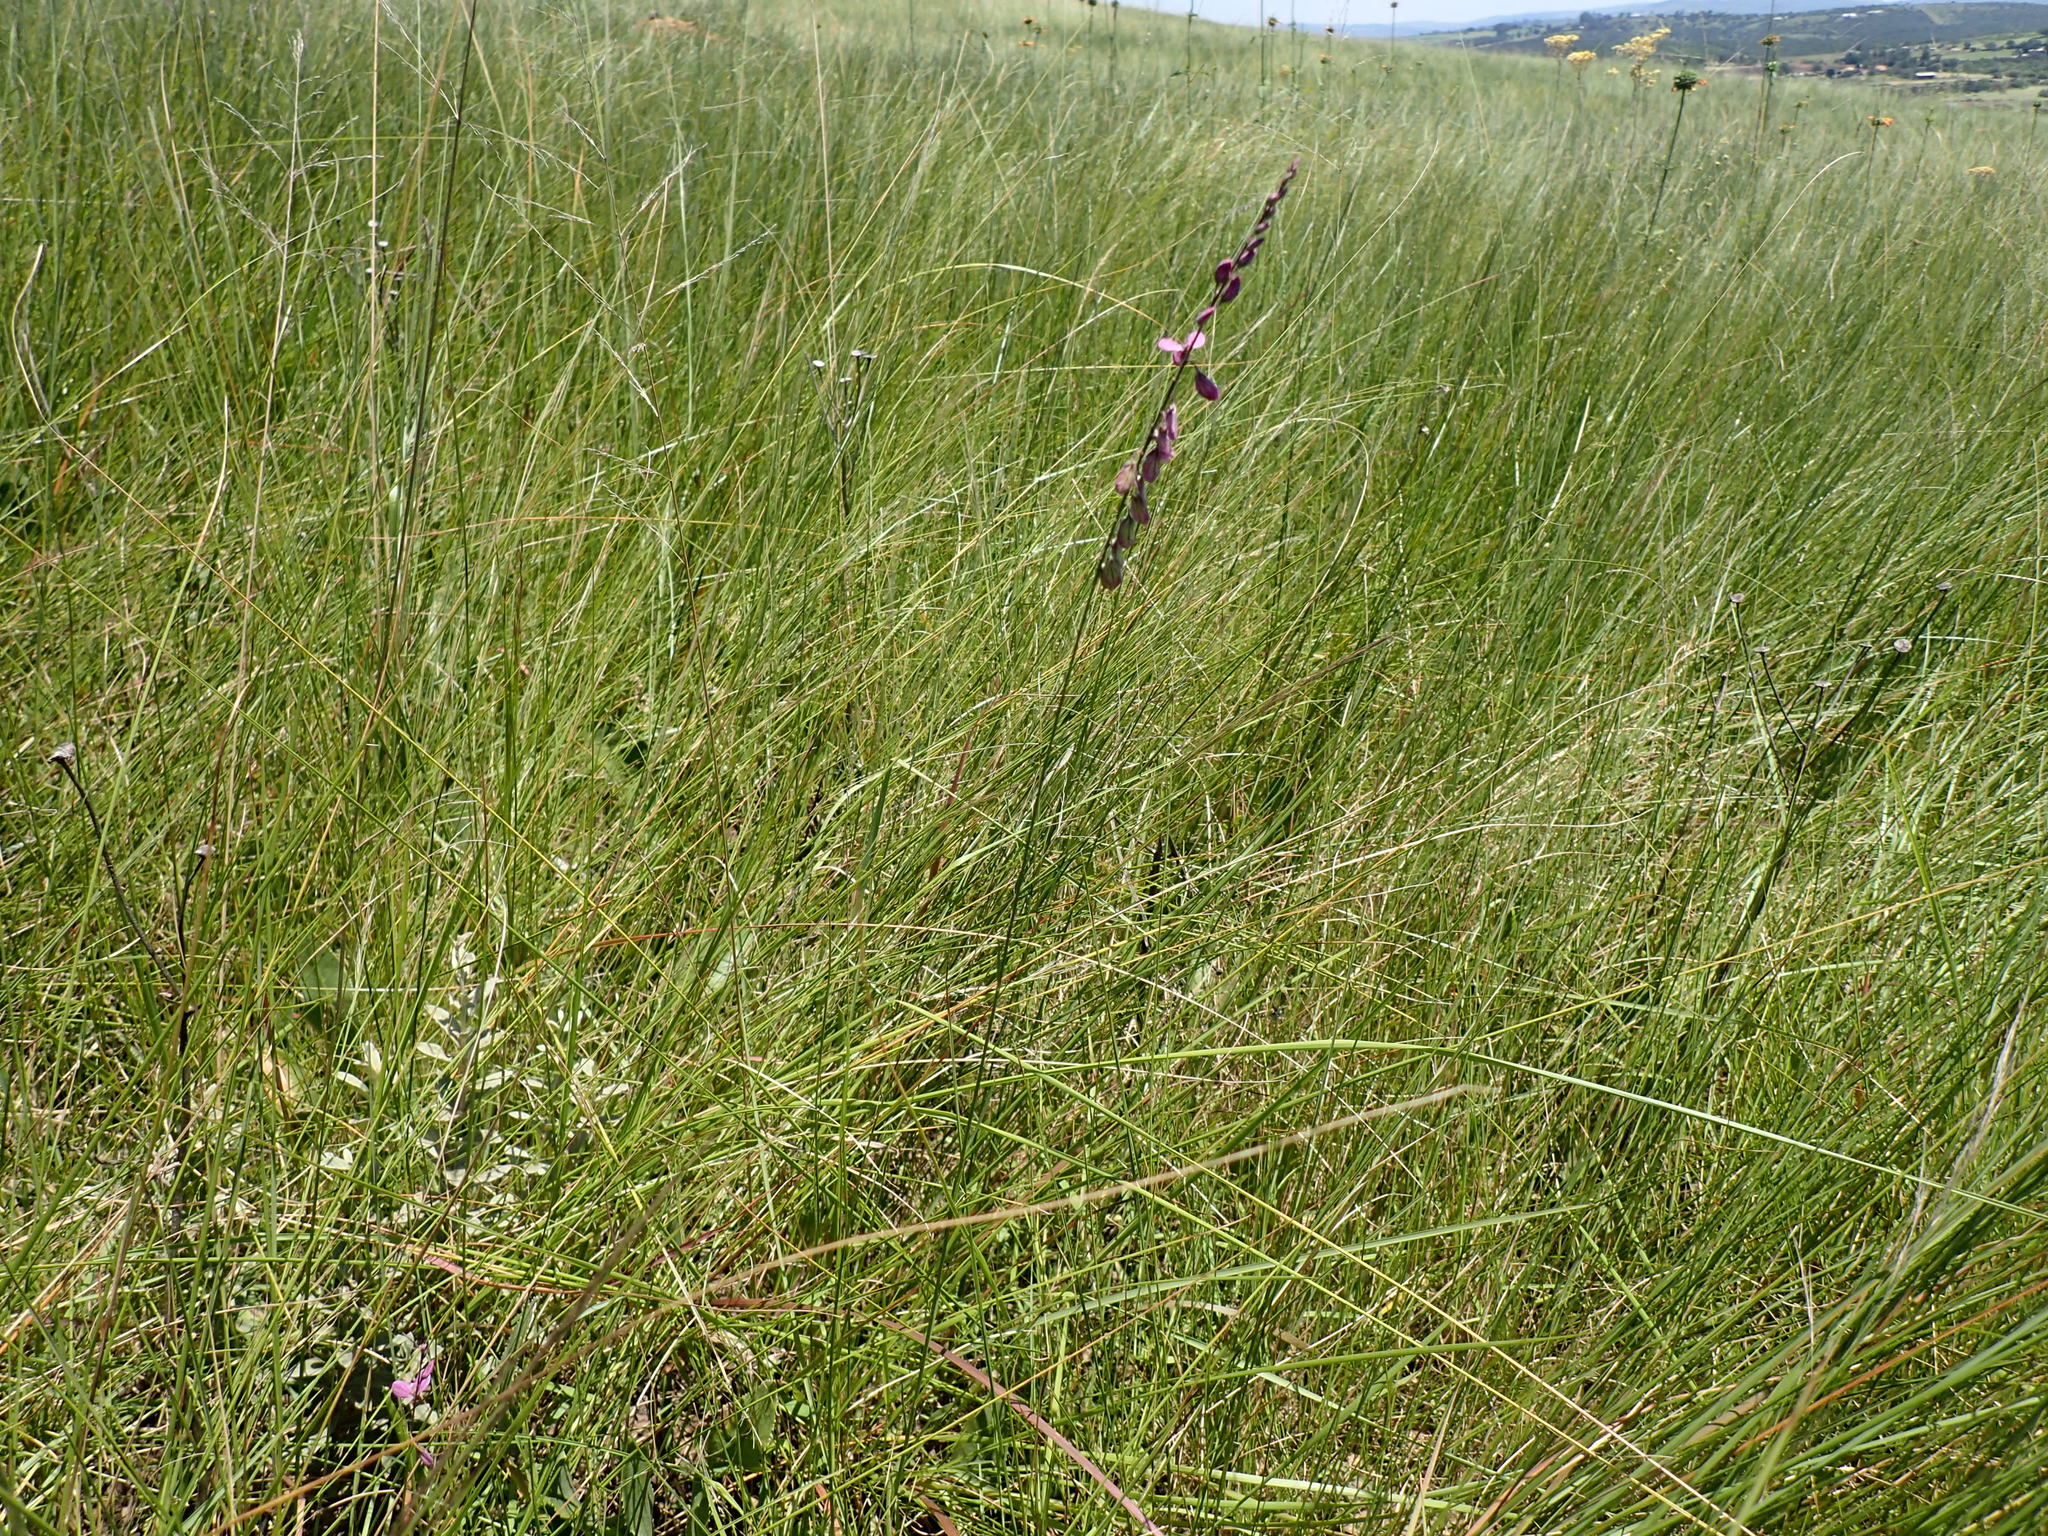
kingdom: Plantae
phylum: Tracheophyta
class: Magnoliopsida
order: Fabales
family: Polygalaceae
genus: Polygala
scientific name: Polygala hottentotta
